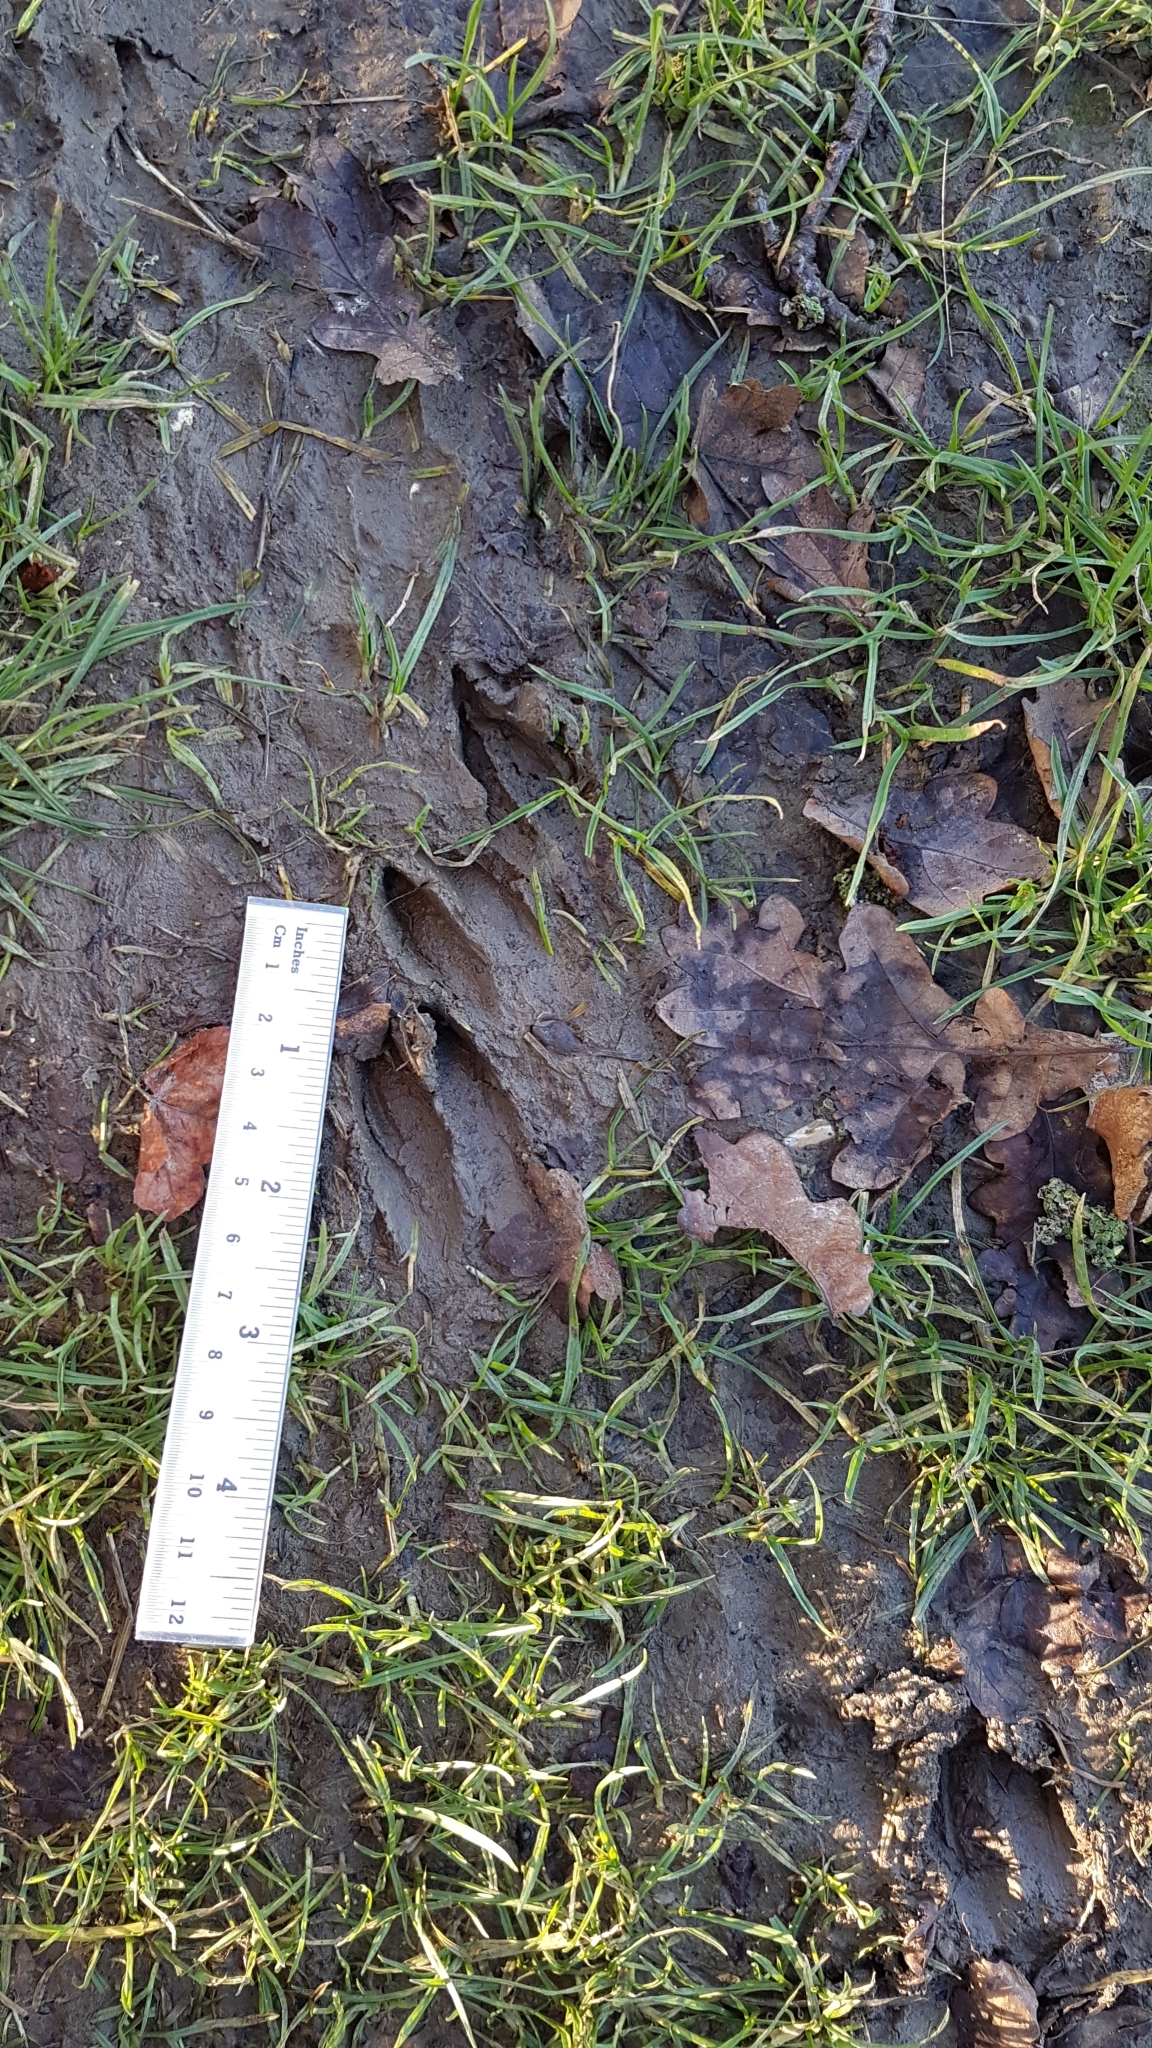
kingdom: Animalia
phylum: Chordata
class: Mammalia
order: Artiodactyla
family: Cervidae
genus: Muntiacus
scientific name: Muntiacus reevesi
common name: Reeves' muntjac
